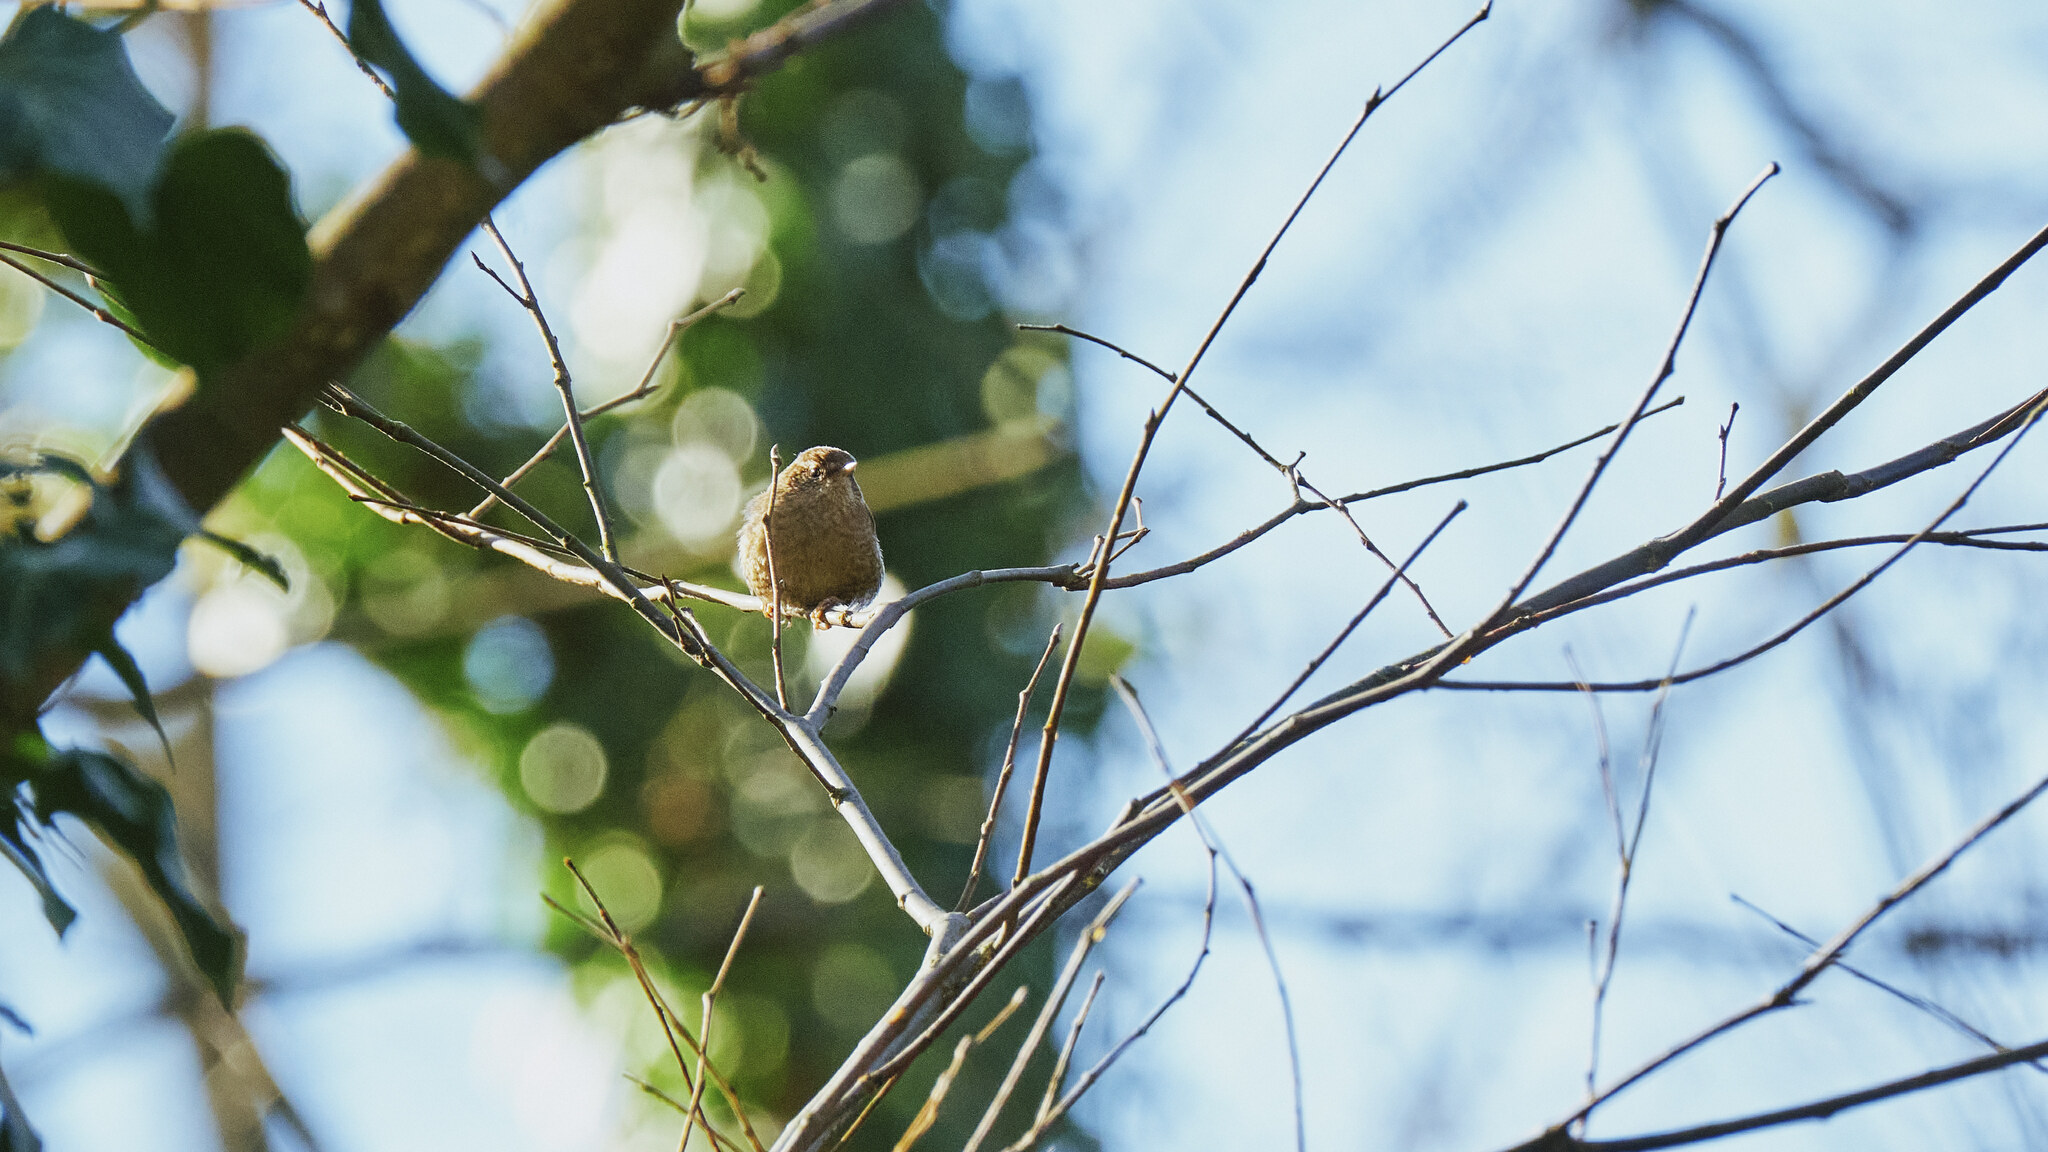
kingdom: Animalia
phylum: Chordata
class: Aves
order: Passeriformes
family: Troglodytidae
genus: Troglodytes
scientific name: Troglodytes troglodytes
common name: Eurasian wren
